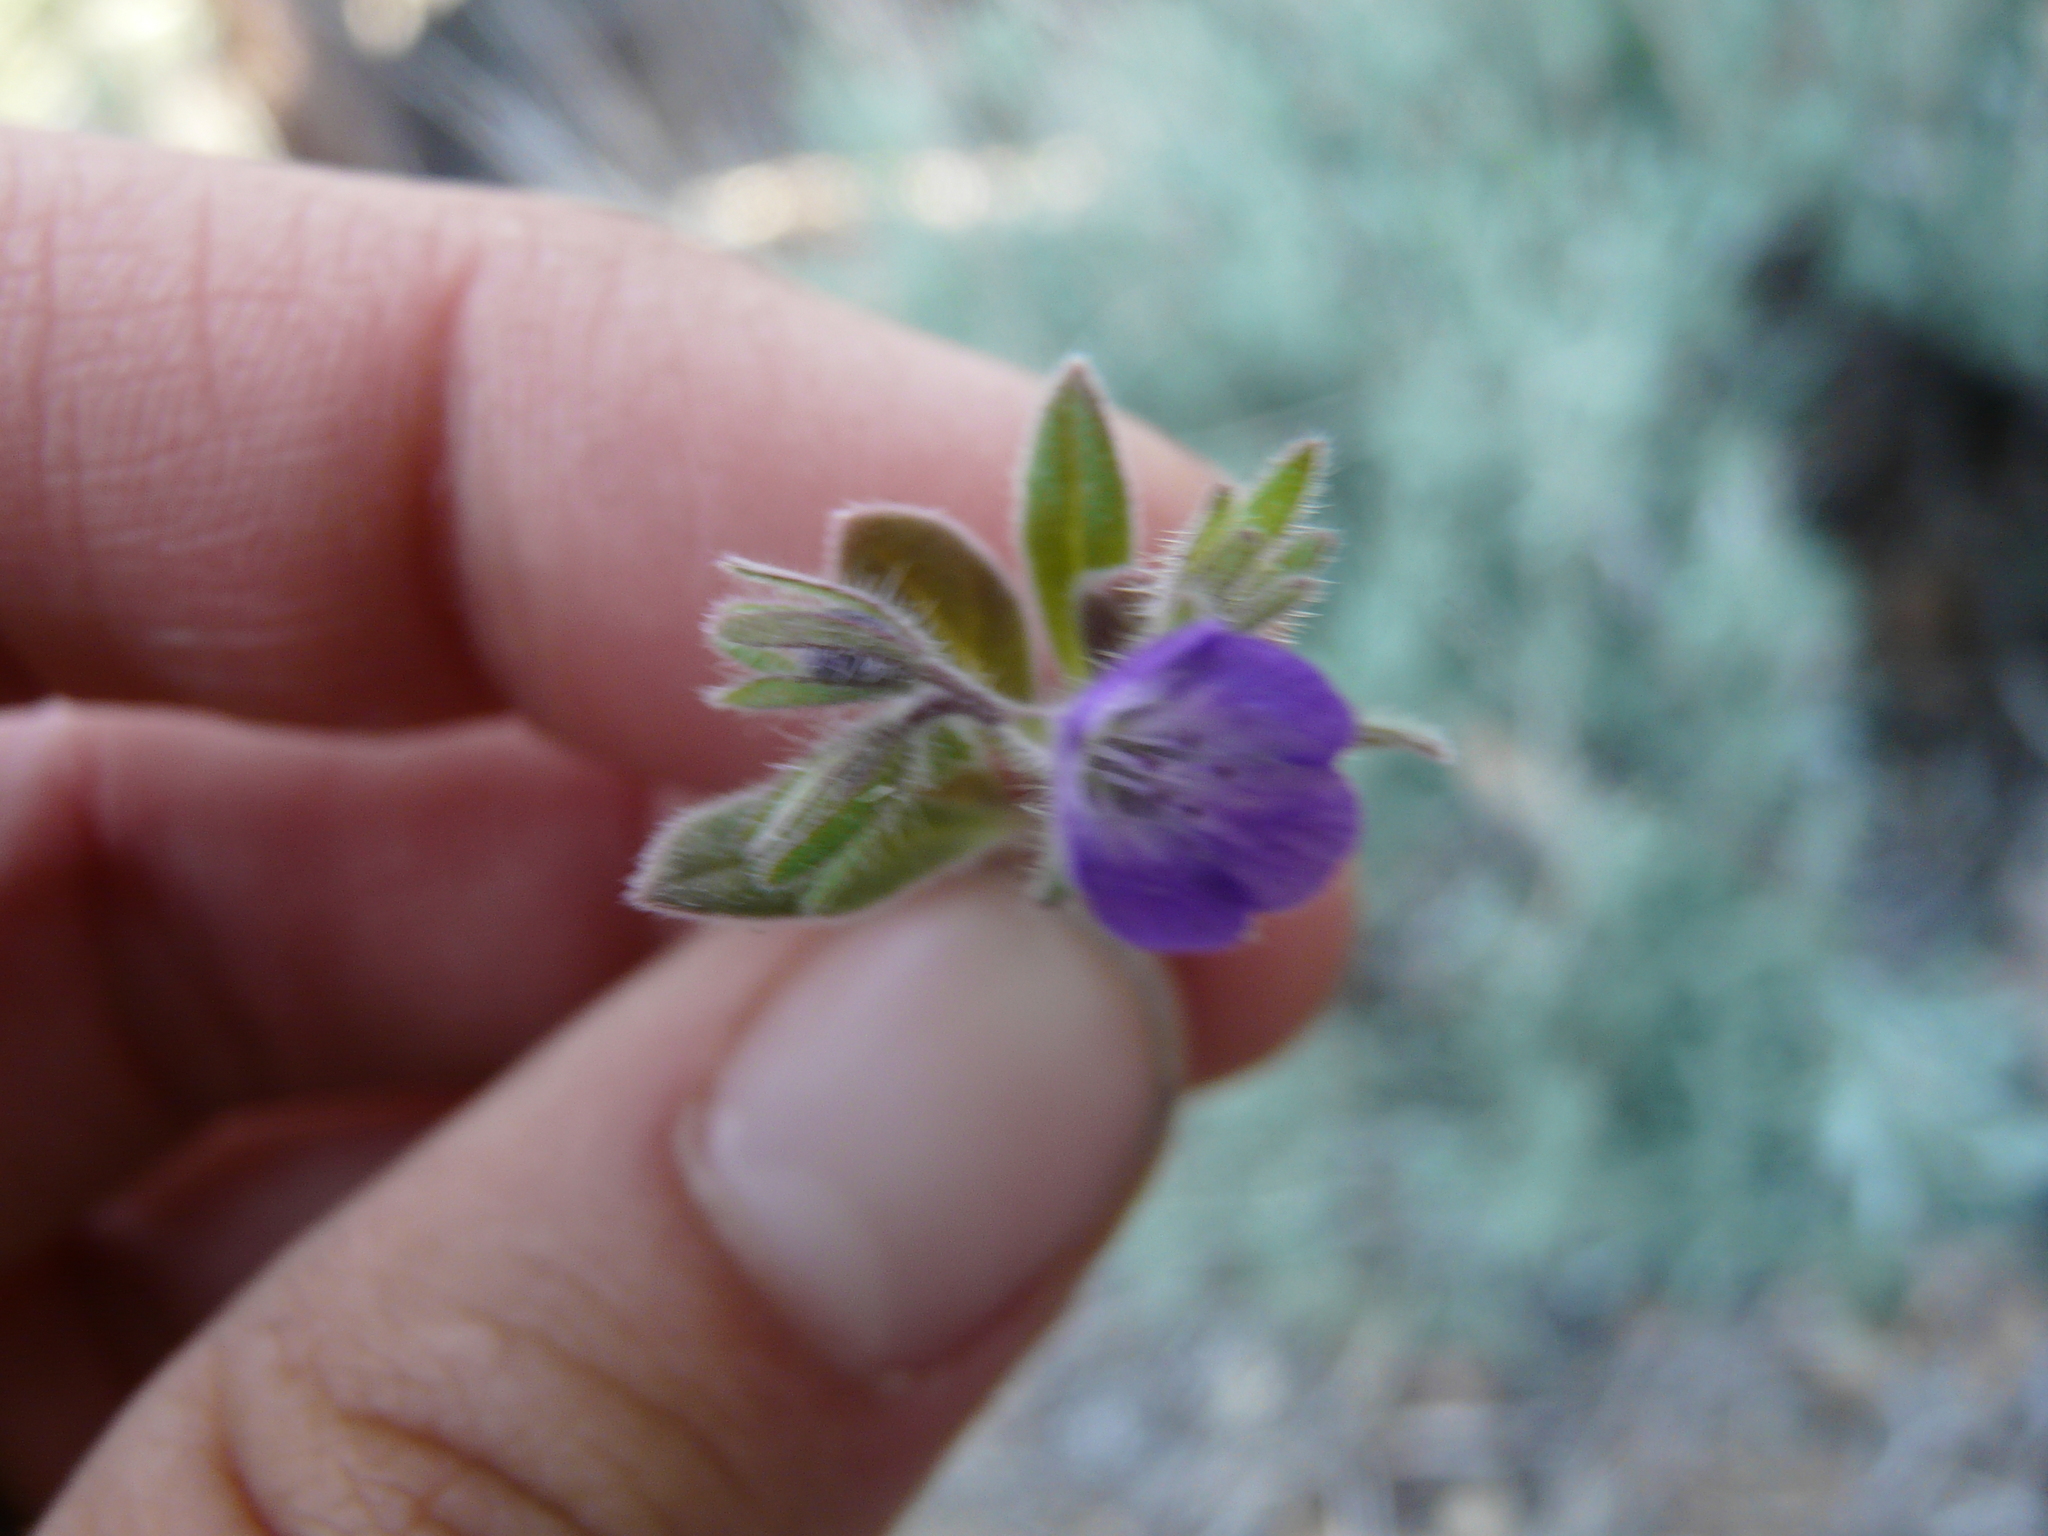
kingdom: Plantae
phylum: Tracheophyta
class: Magnoliopsida
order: Boraginales
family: Hydrophyllaceae
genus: Phacelia
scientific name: Phacelia curvipes
